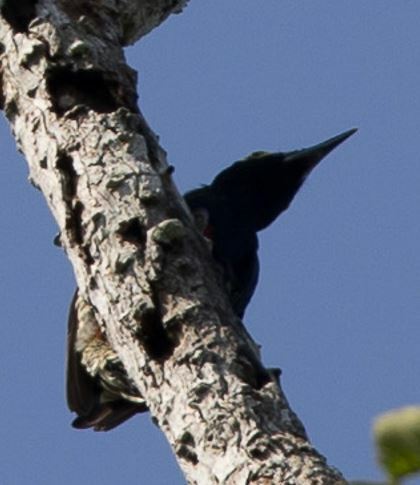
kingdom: Animalia
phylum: Chordata
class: Aves
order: Piciformes
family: Picidae
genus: Melanerpes
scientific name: Melanerpes cruentatus
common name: Yellow-tufted woodpecker
